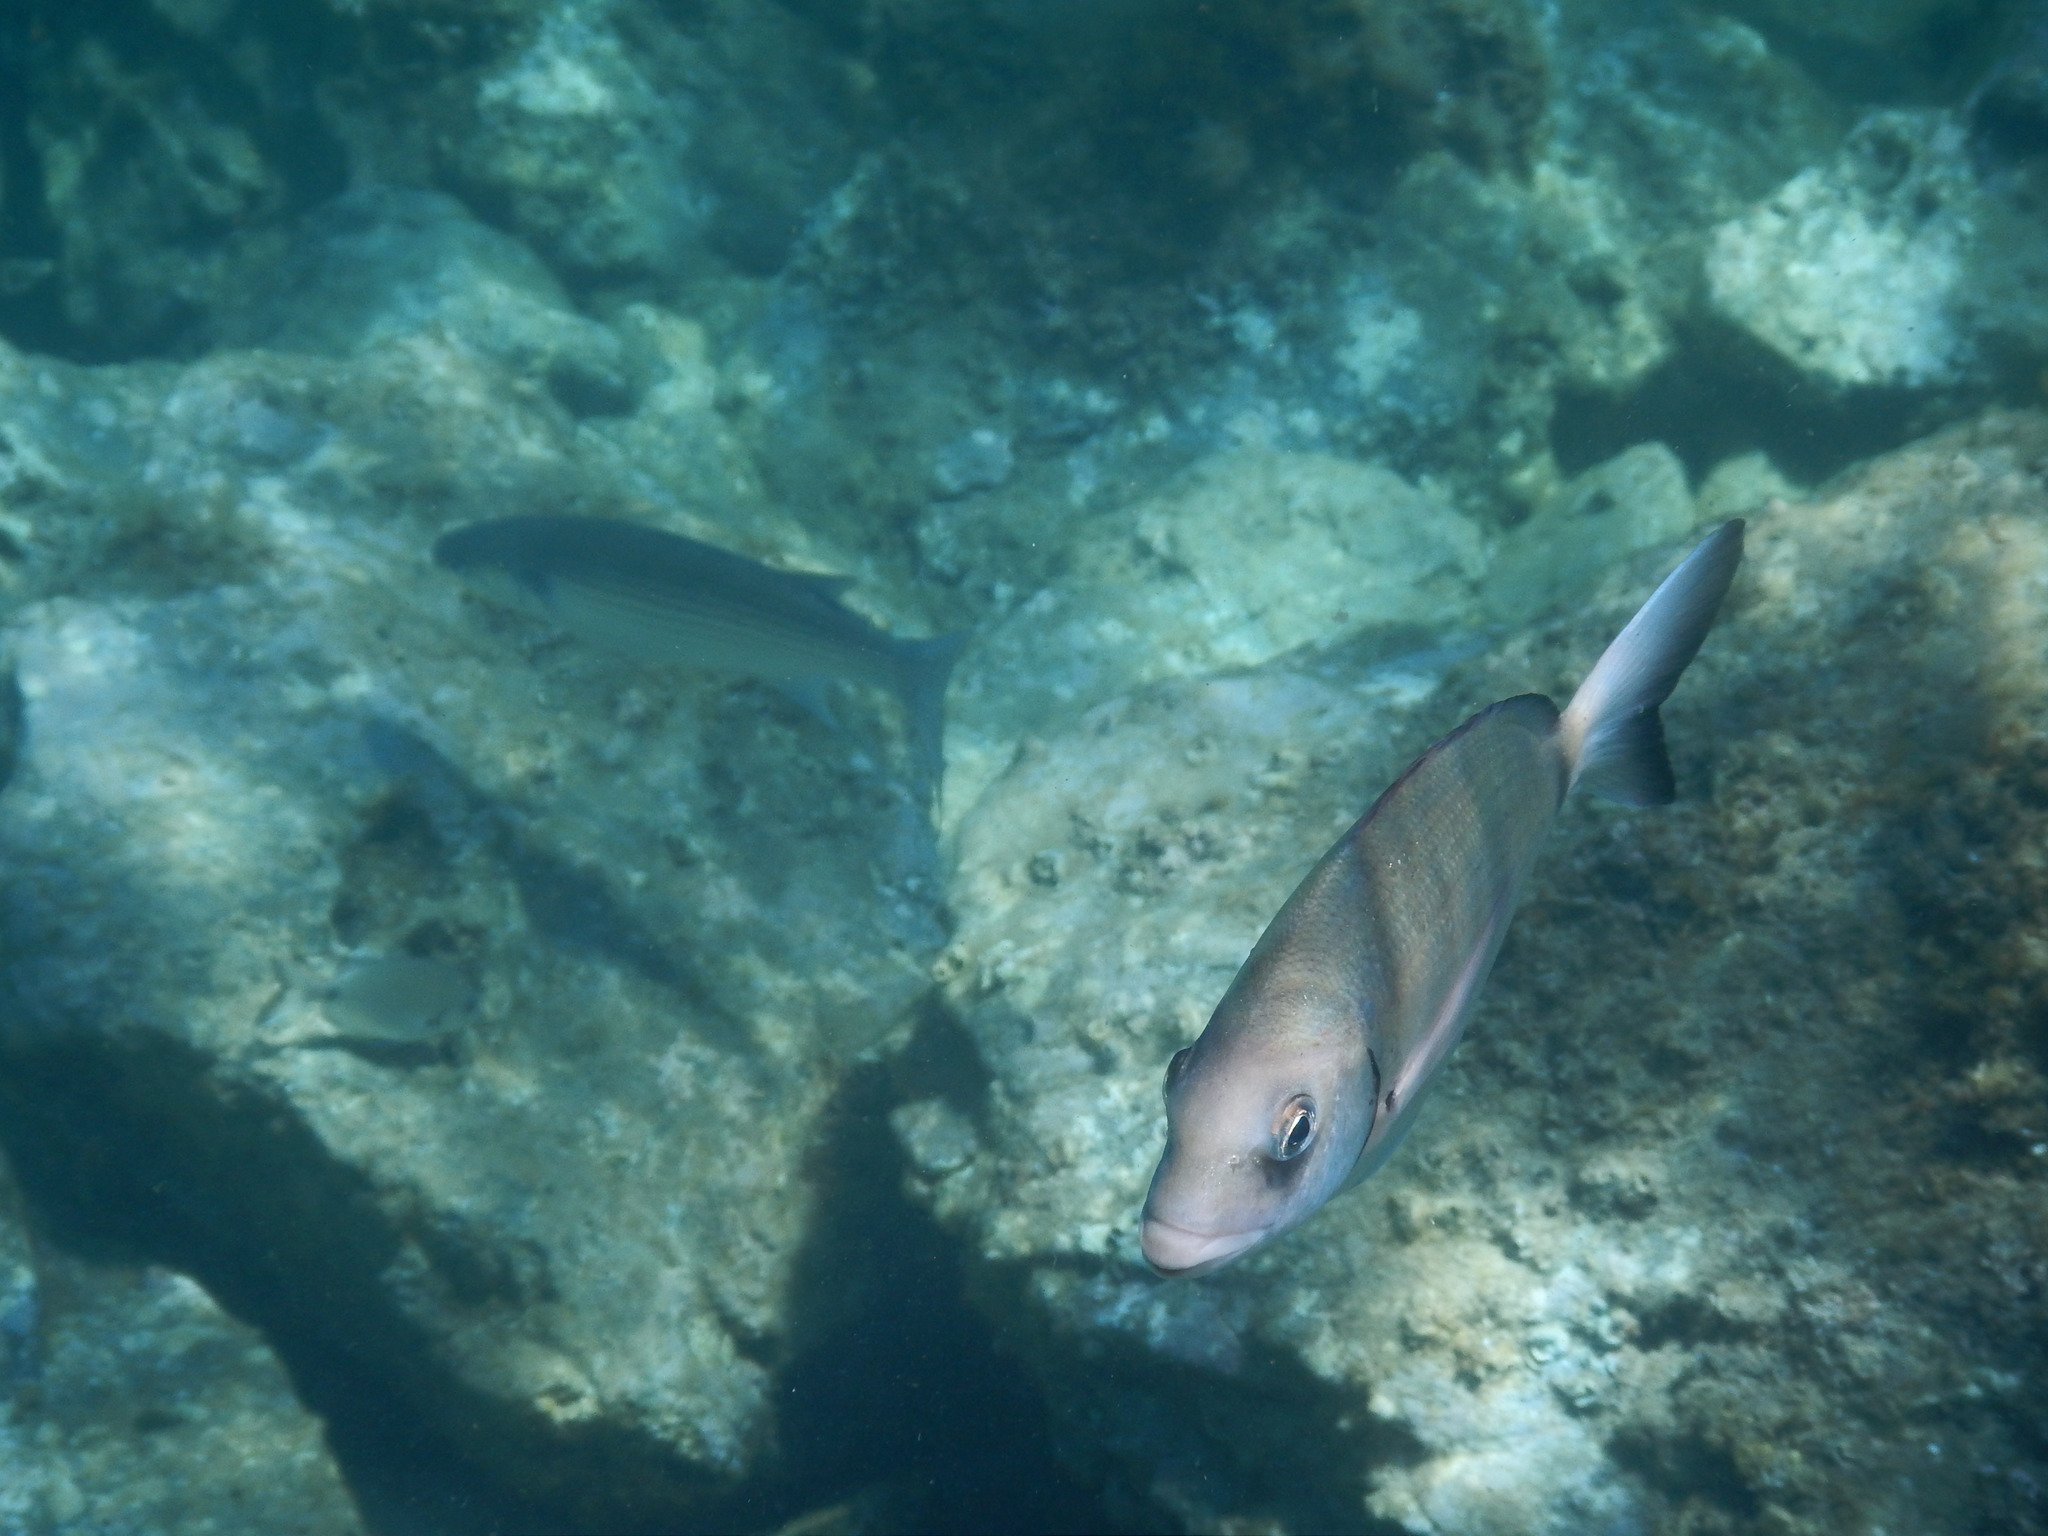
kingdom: Animalia
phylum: Chordata
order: Perciformes
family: Sparidae
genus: Diplodus
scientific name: Diplodus sargus
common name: White seabream
